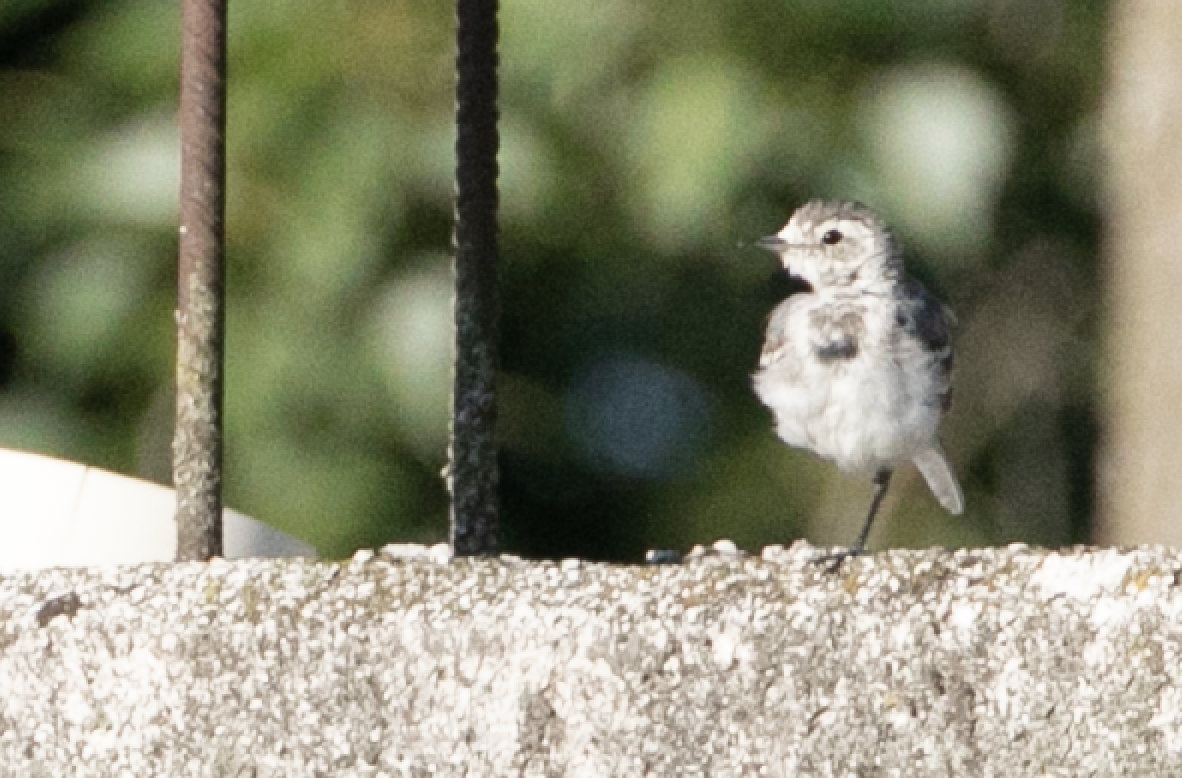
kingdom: Animalia
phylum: Chordata
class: Aves
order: Passeriformes
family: Motacillidae
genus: Motacilla
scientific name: Motacilla alba
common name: White wagtail
